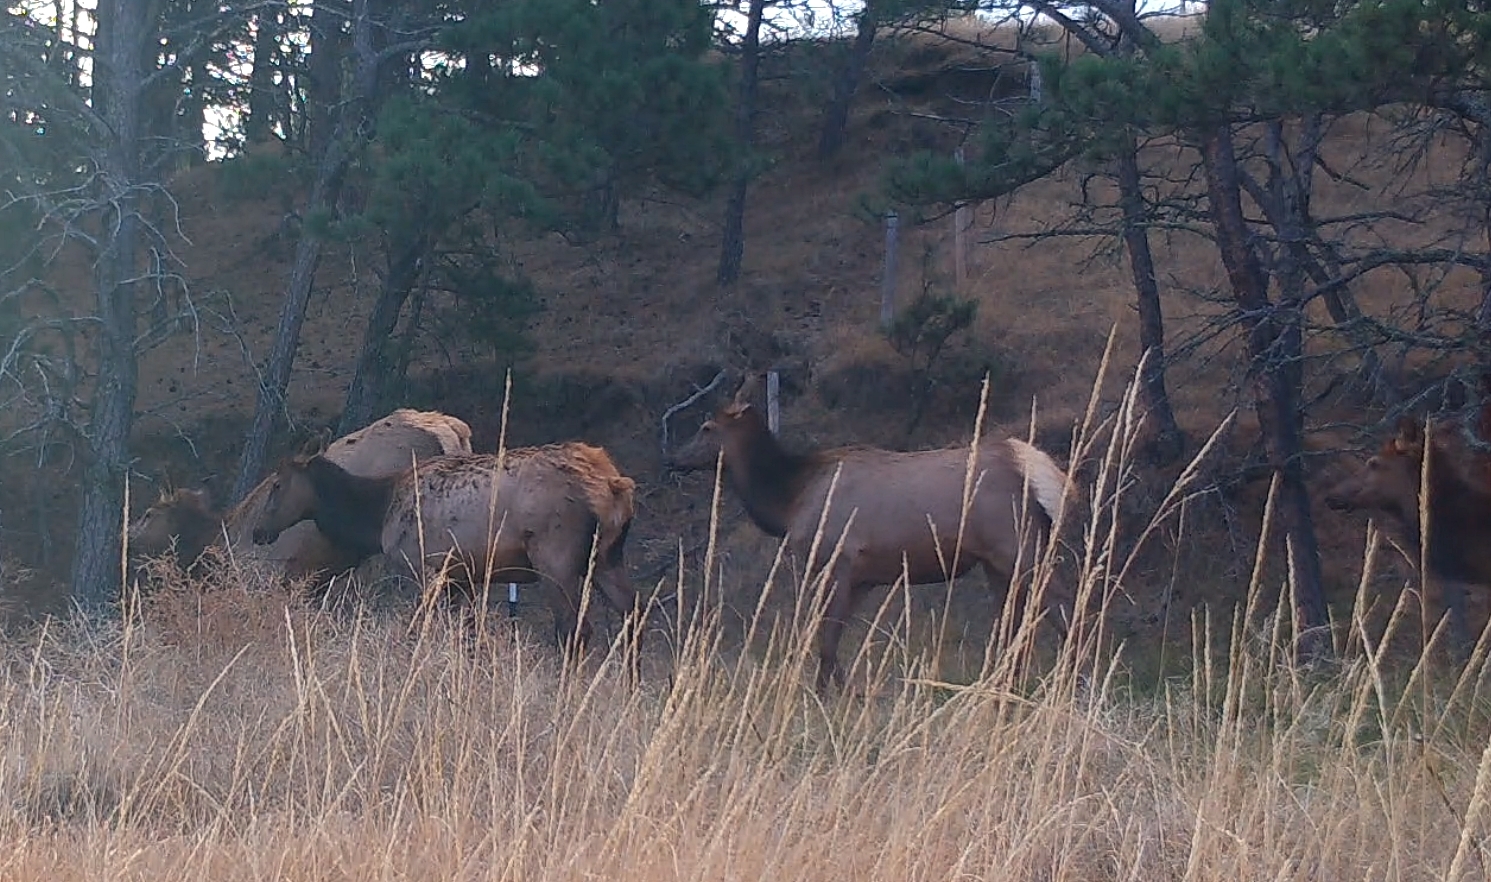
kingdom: Animalia
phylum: Chordata
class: Mammalia
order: Artiodactyla
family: Cervidae
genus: Cervus
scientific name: Cervus elaphus
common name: Red deer
